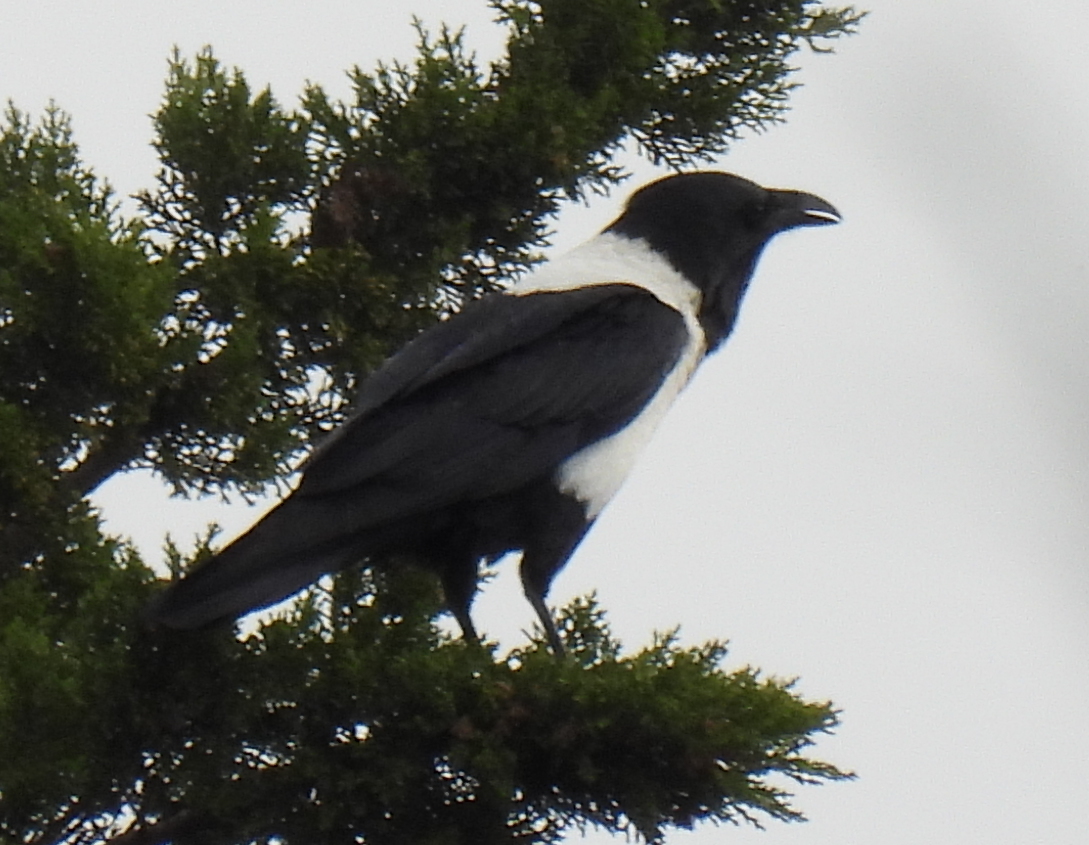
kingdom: Animalia
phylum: Chordata
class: Aves
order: Passeriformes
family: Corvidae
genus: Corvus
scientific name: Corvus albus
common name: Pied crow
